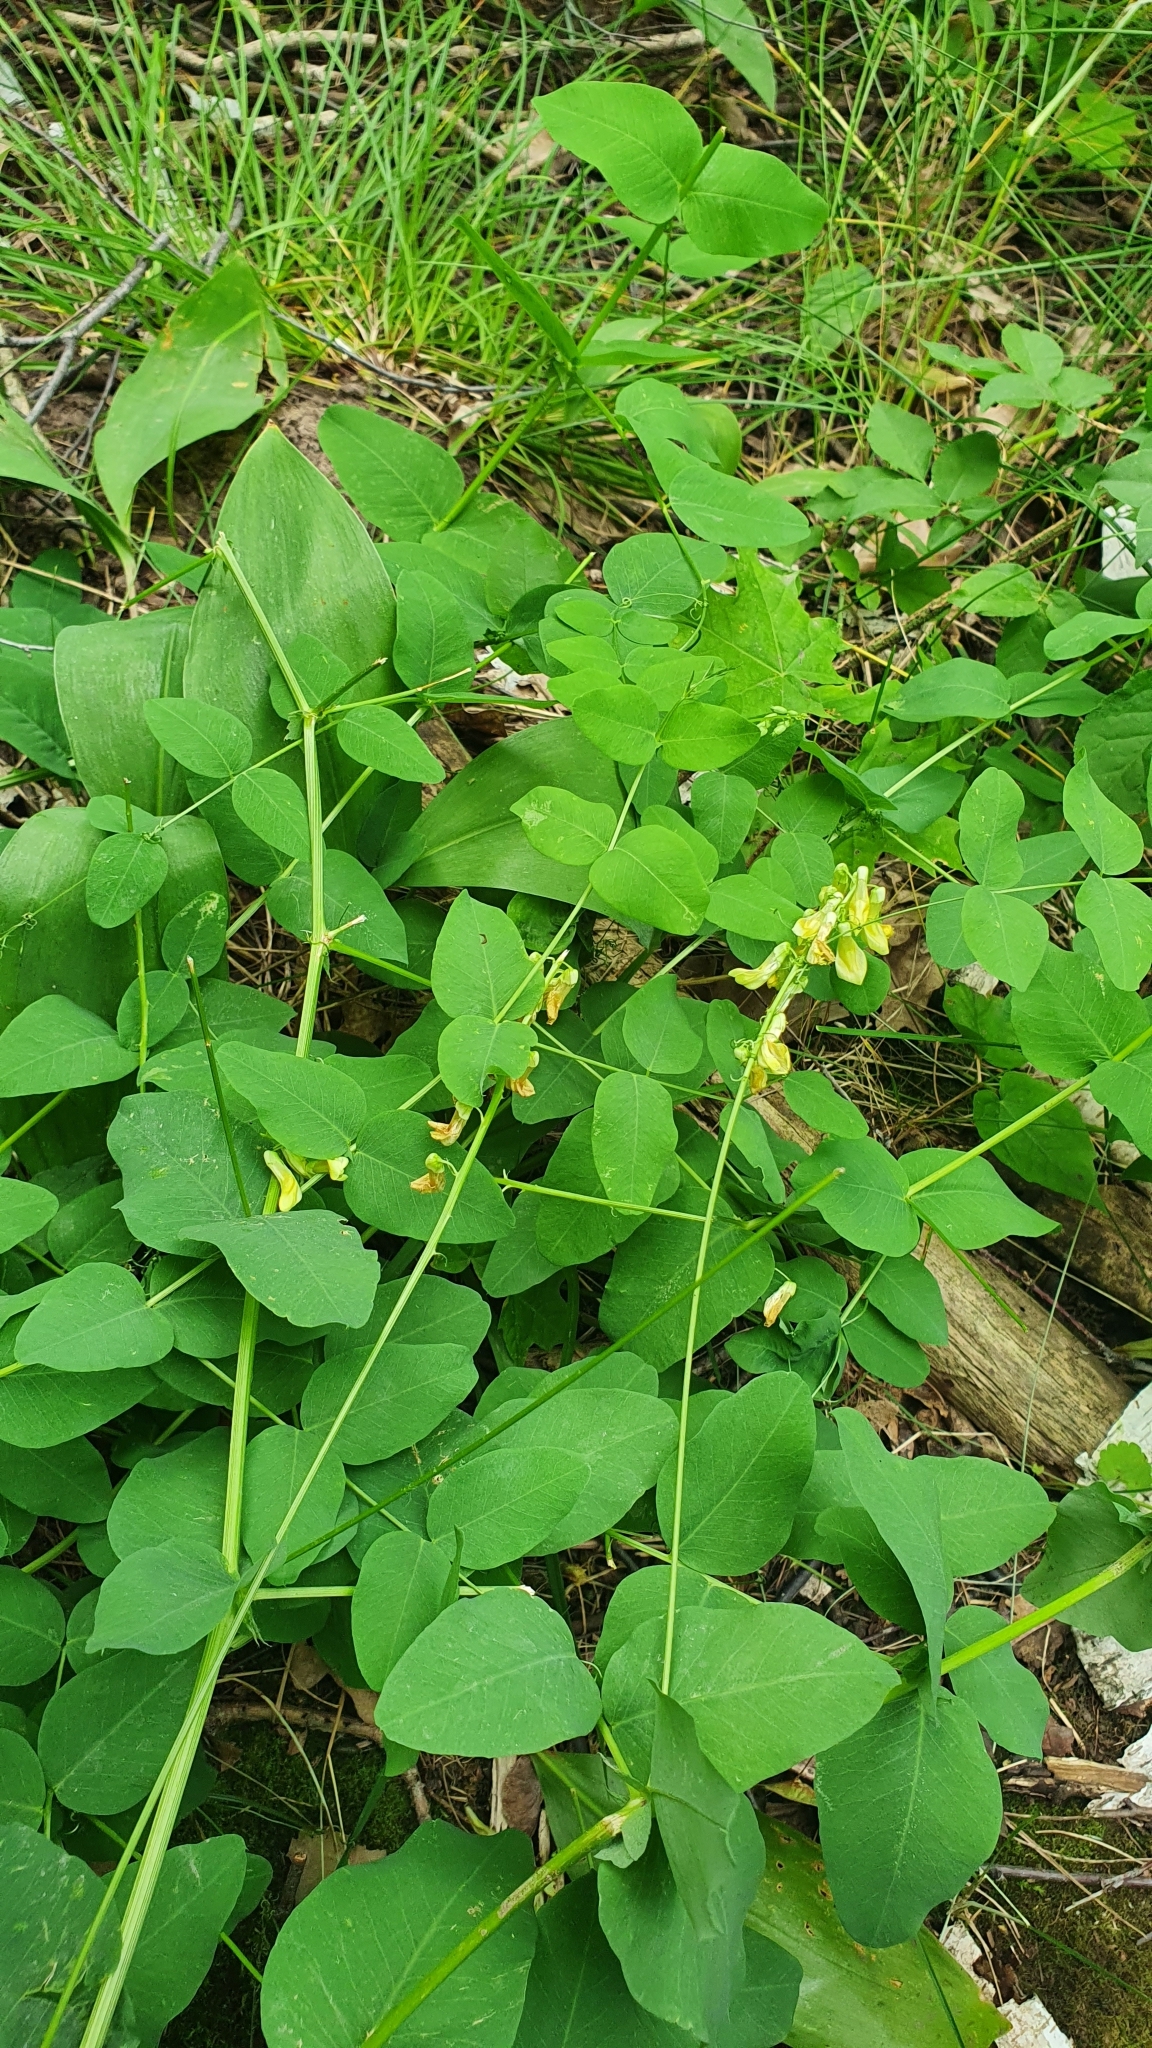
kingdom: Plantae
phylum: Tracheophyta
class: Magnoliopsida
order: Fabales
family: Fabaceae
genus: Vicia
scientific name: Vicia pisiformis
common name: Pale-flower vetch
